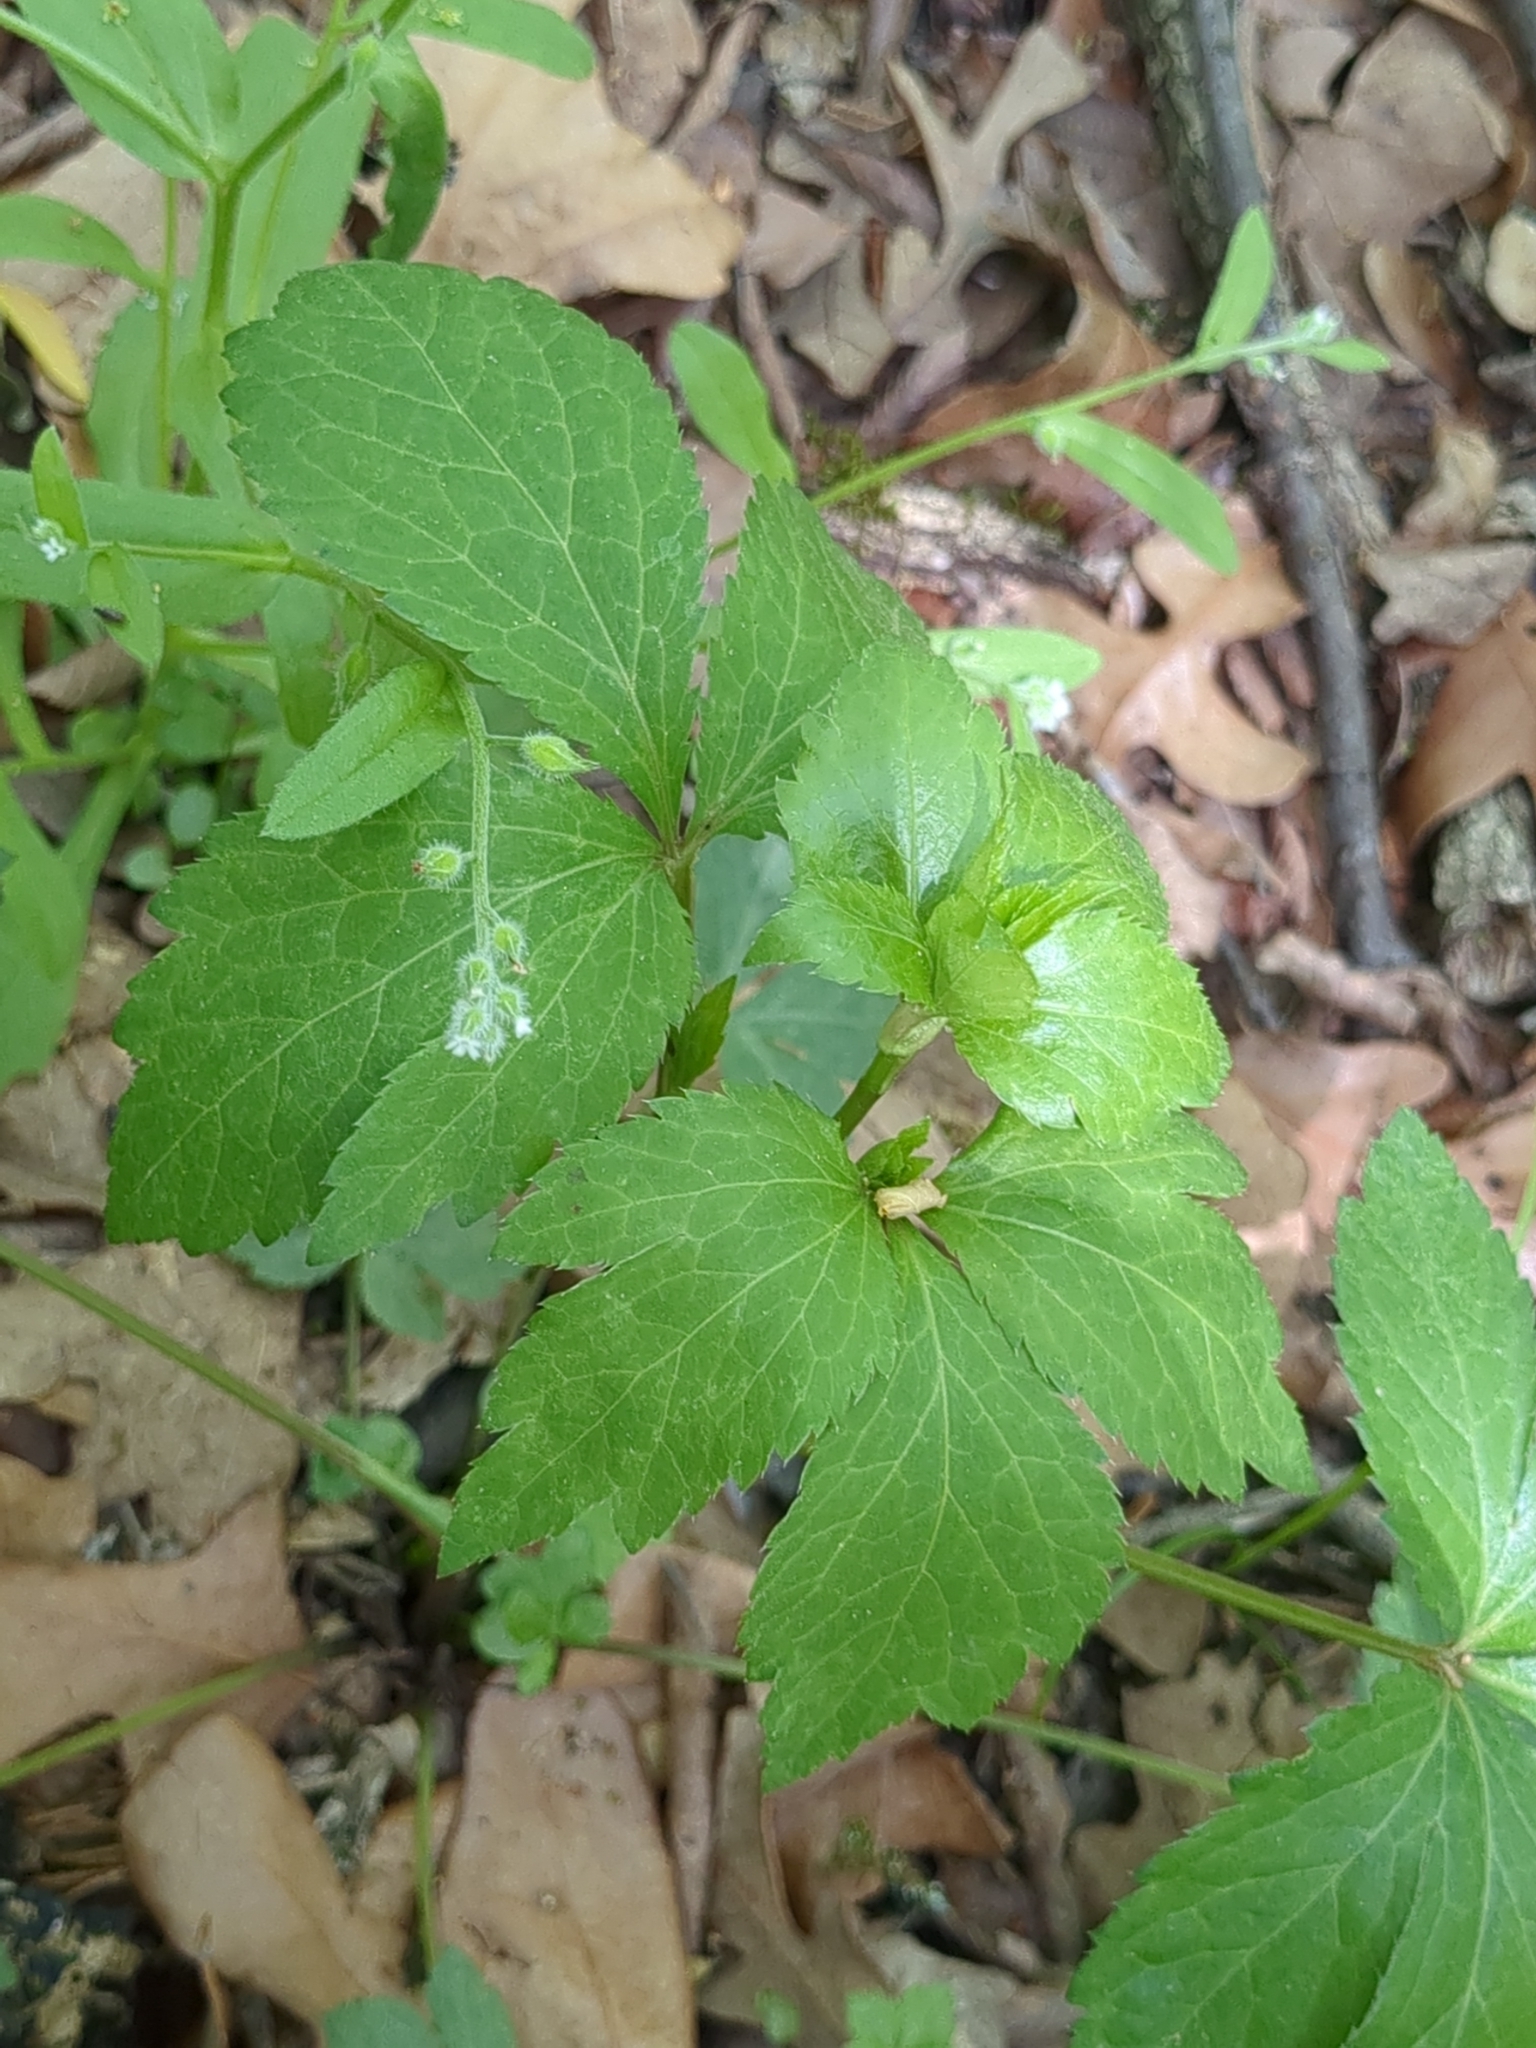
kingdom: Plantae
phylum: Tracheophyta
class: Magnoliopsida
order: Apiales
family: Apiaceae
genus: Sanicula
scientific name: Sanicula canadensis
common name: Canada sanicle
